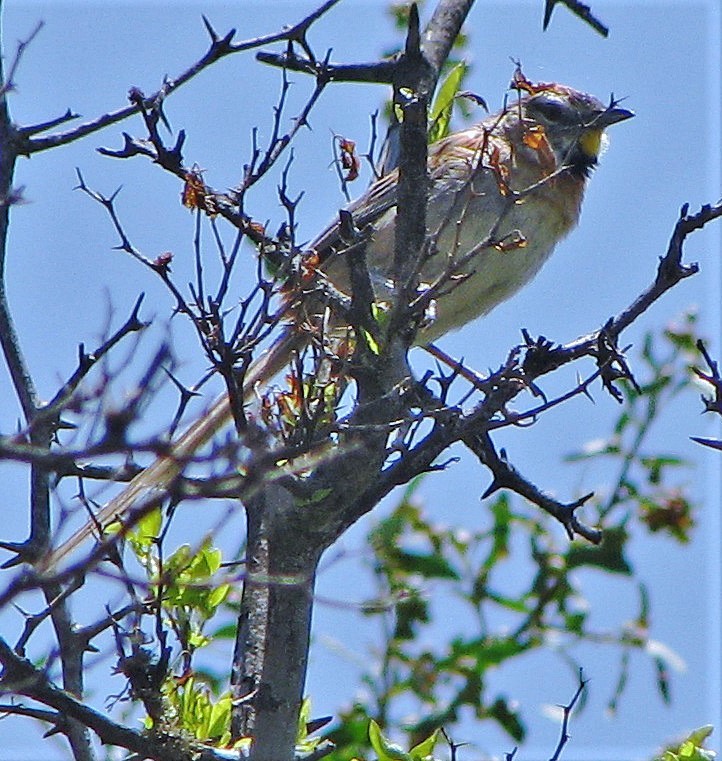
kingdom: Animalia
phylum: Chordata
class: Aves
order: Passeriformes
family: Furnariidae
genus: Schoeniophylax
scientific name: Schoeniophylax phryganophilus
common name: Chotoy spinetail
